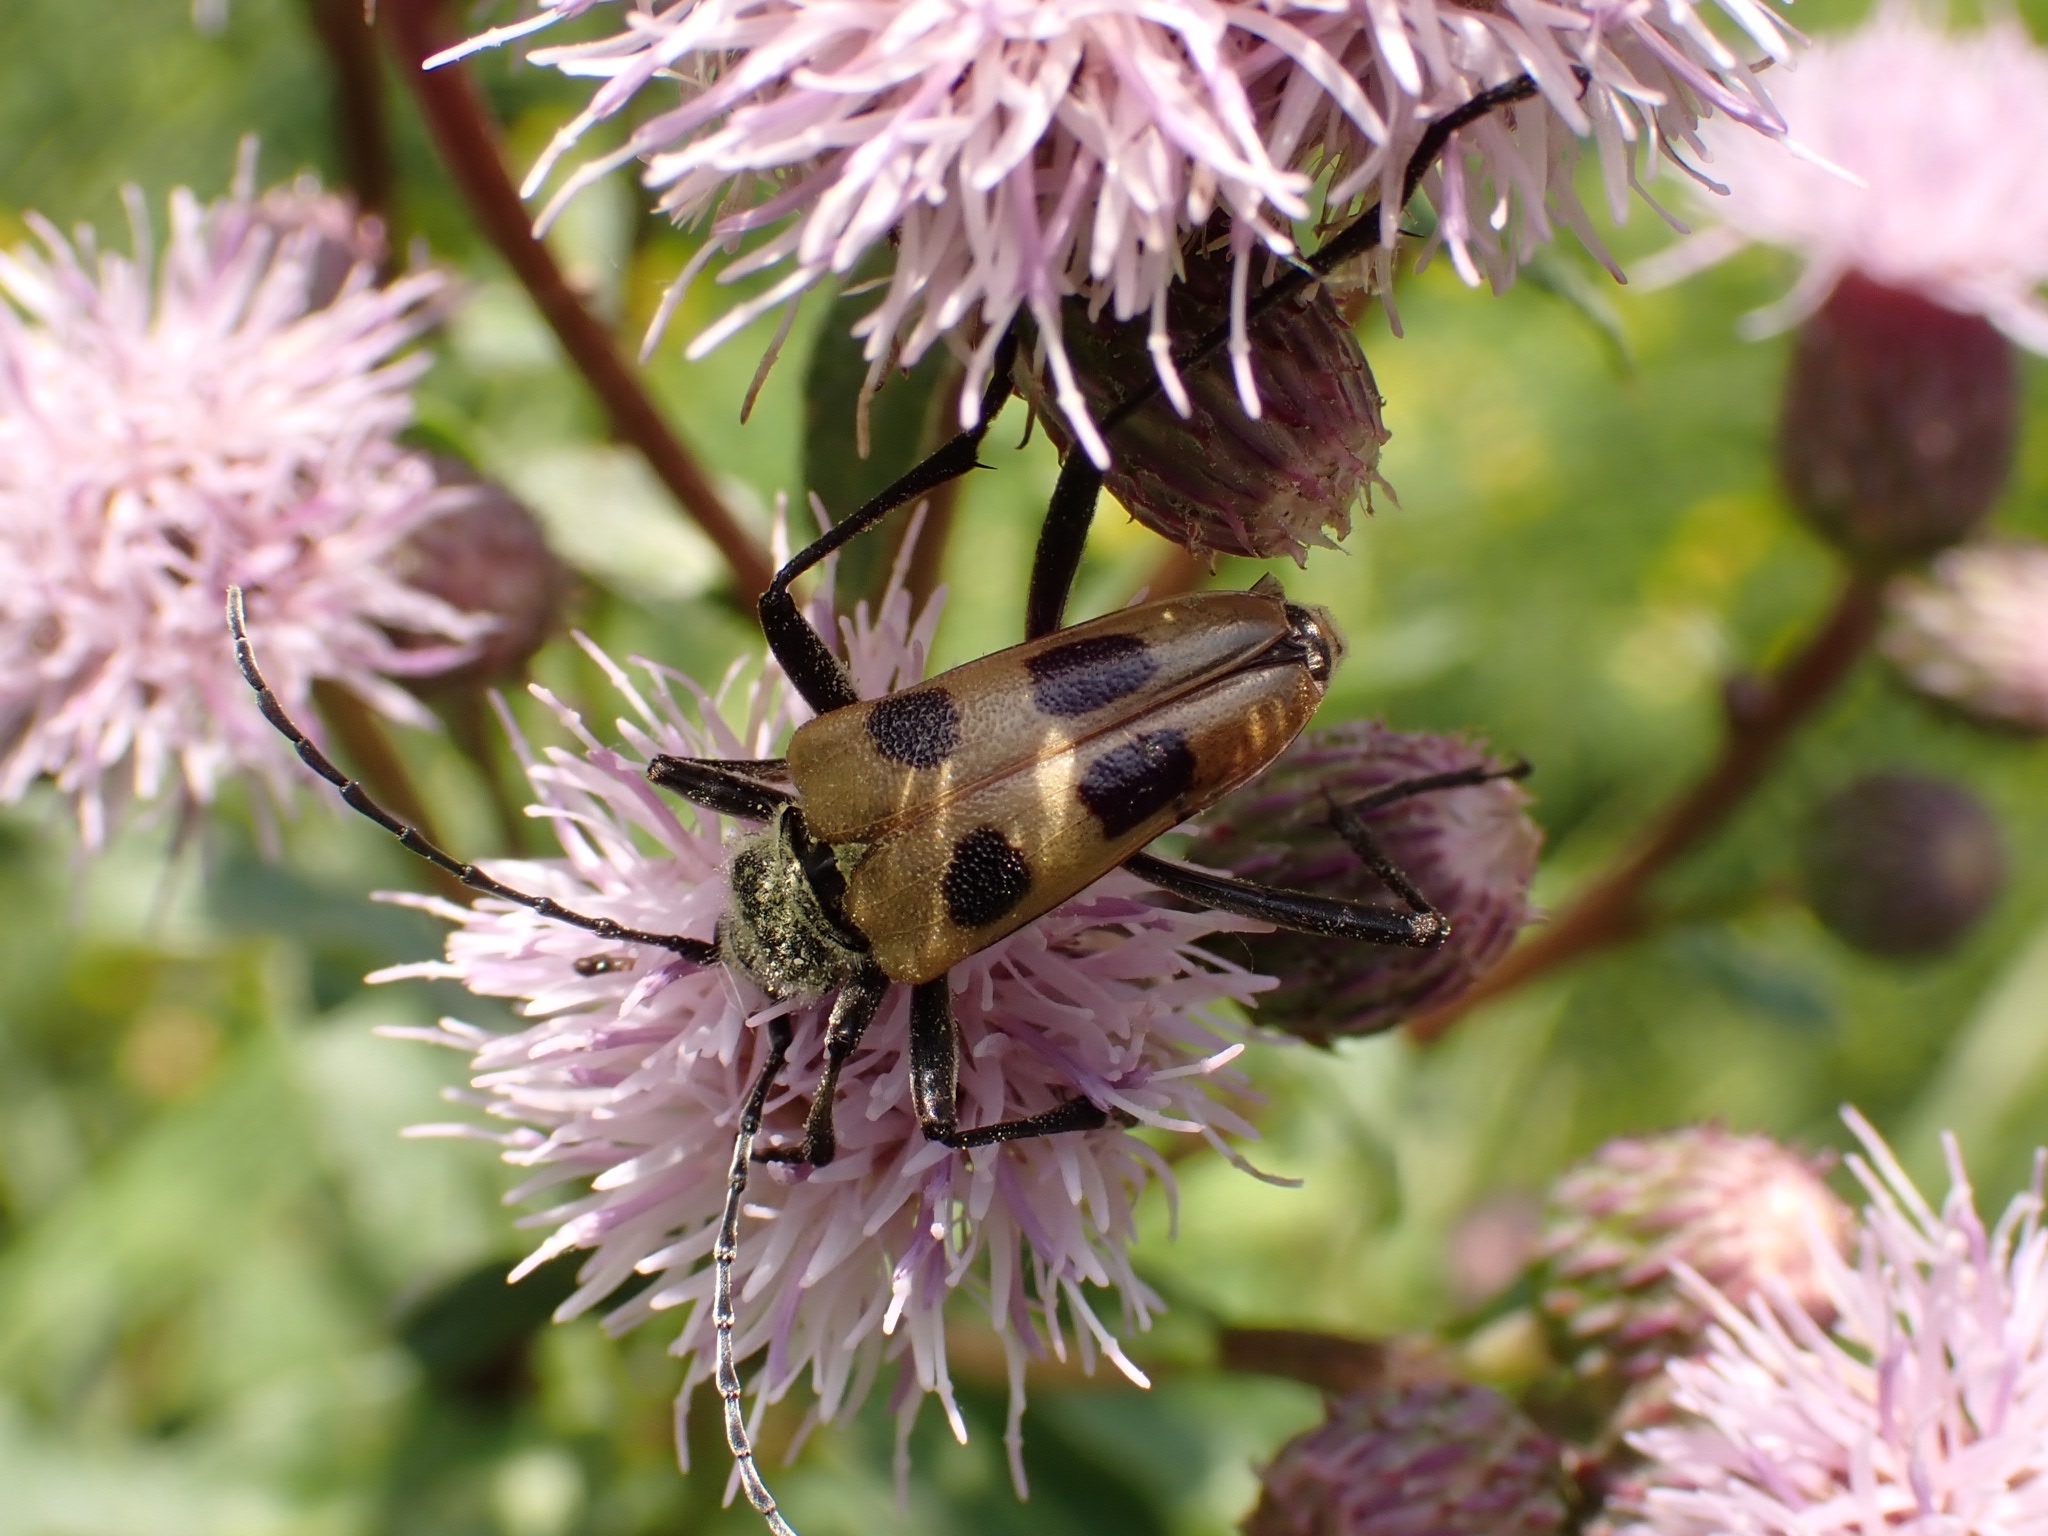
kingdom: Animalia
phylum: Arthropoda
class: Insecta
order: Coleoptera
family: Cerambycidae
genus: Pachyta
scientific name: Pachyta quadrimaculata
